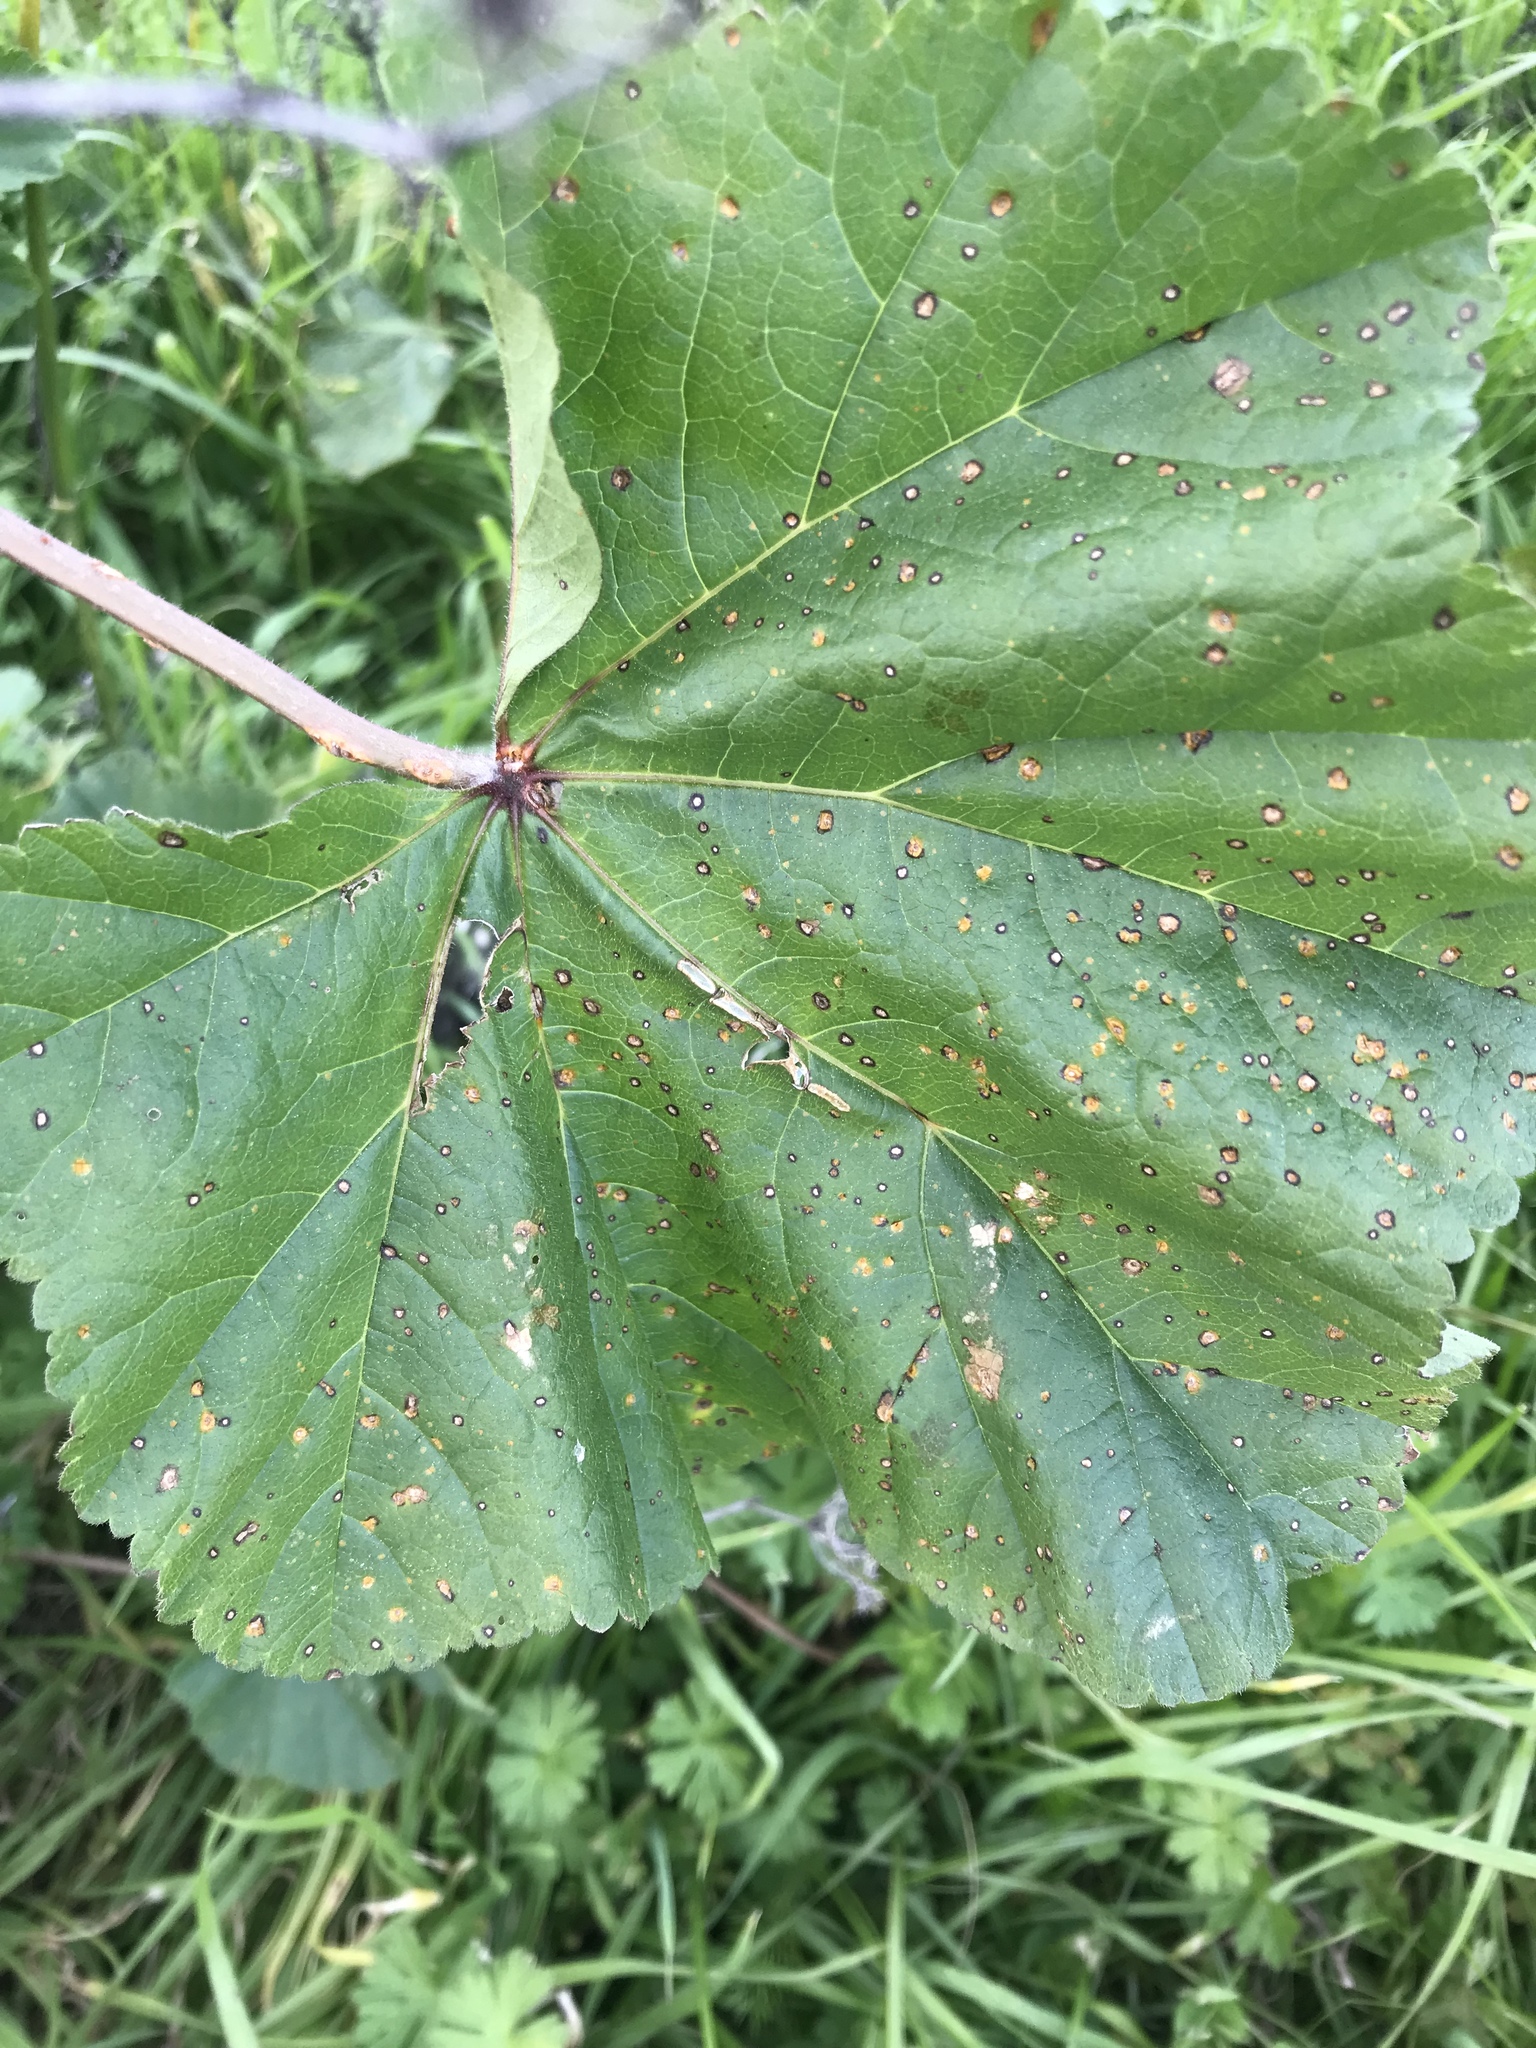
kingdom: Fungi
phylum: Basidiomycota
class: Pucciniomycetes
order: Pucciniales
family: Pucciniaceae
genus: Puccinia
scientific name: Puccinia malvacearum
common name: Hollyhock rust
